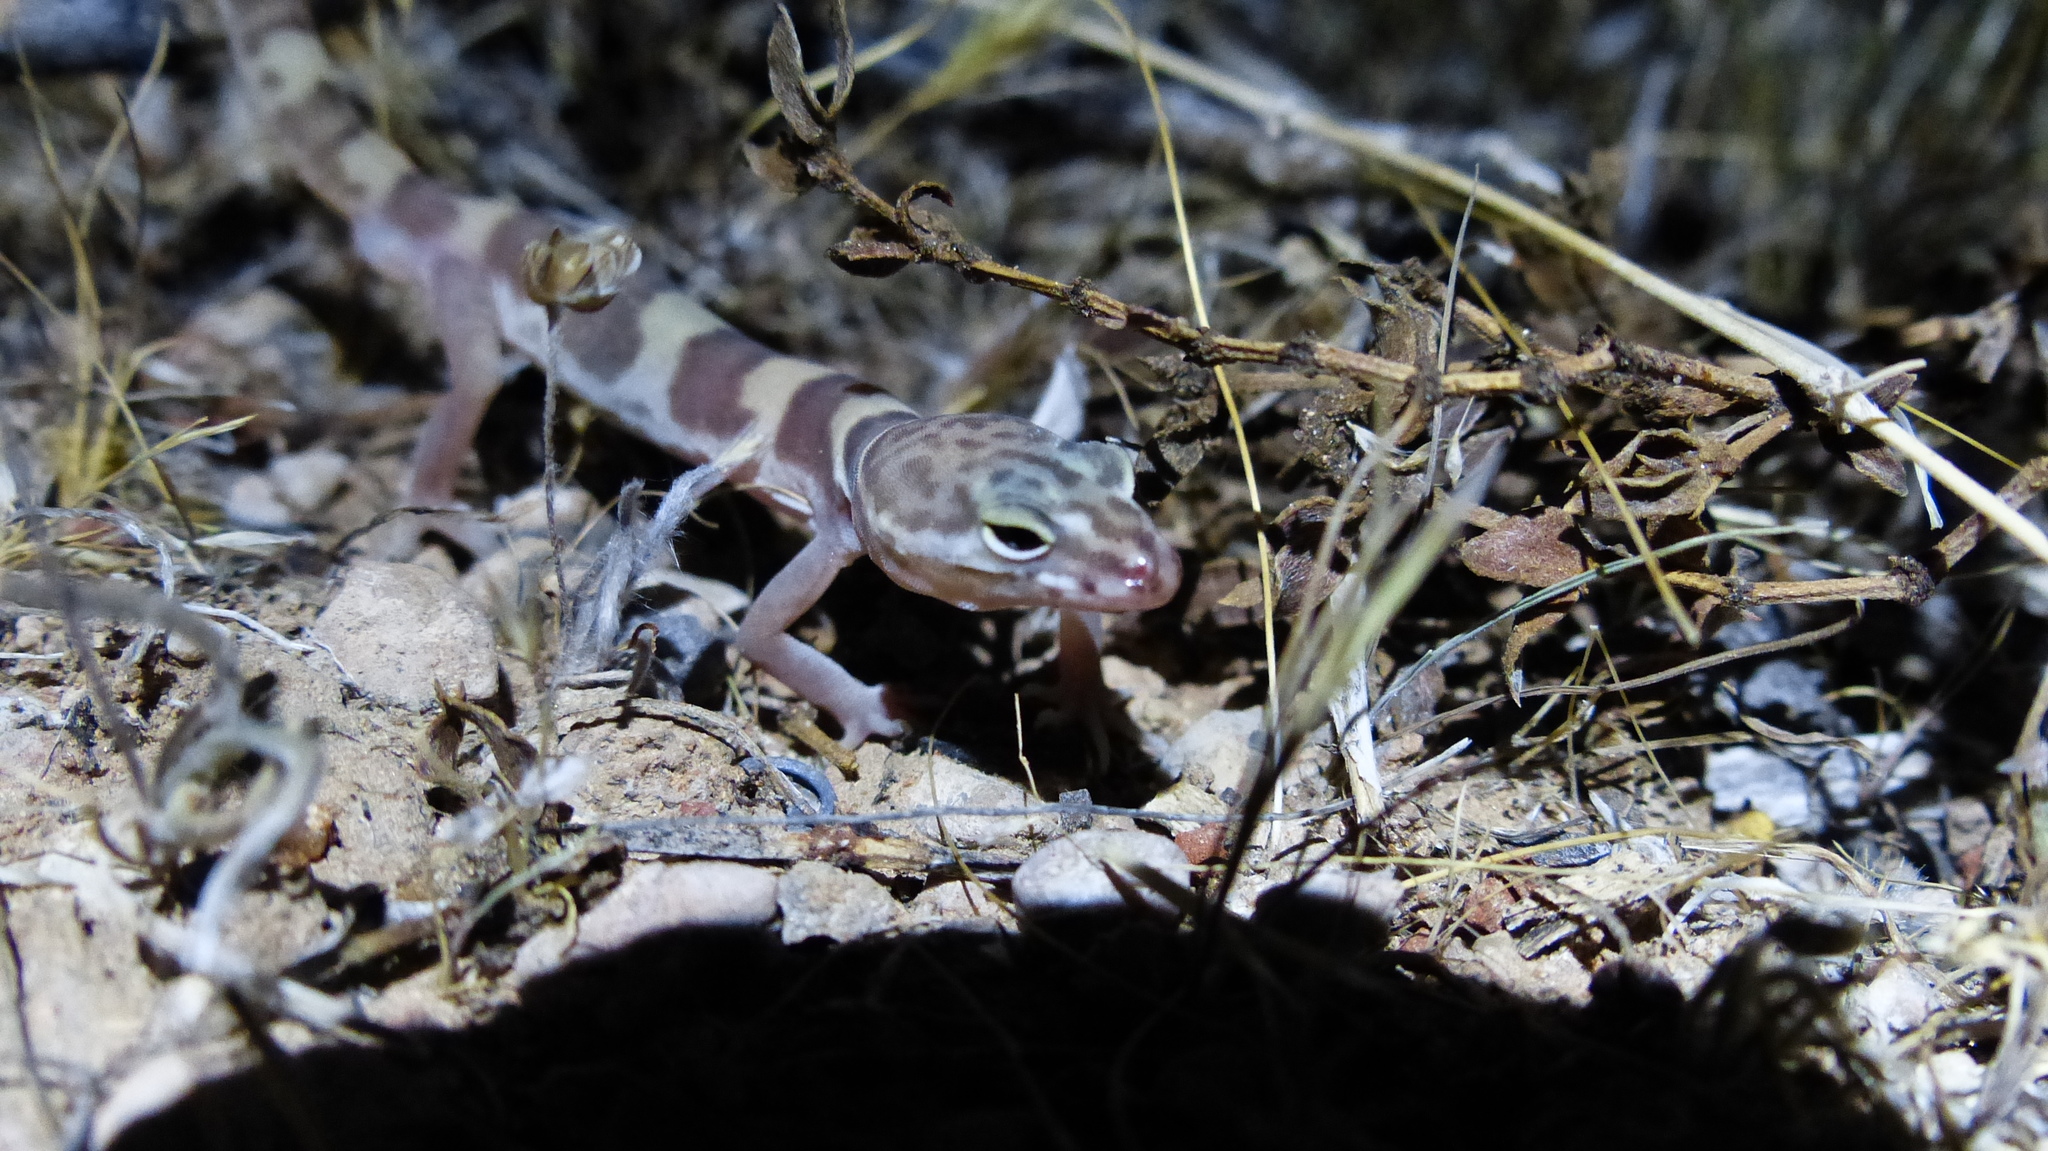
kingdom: Animalia
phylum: Chordata
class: Squamata
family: Eublepharidae
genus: Coleonyx
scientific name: Coleonyx variegatus
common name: Western banded gecko
